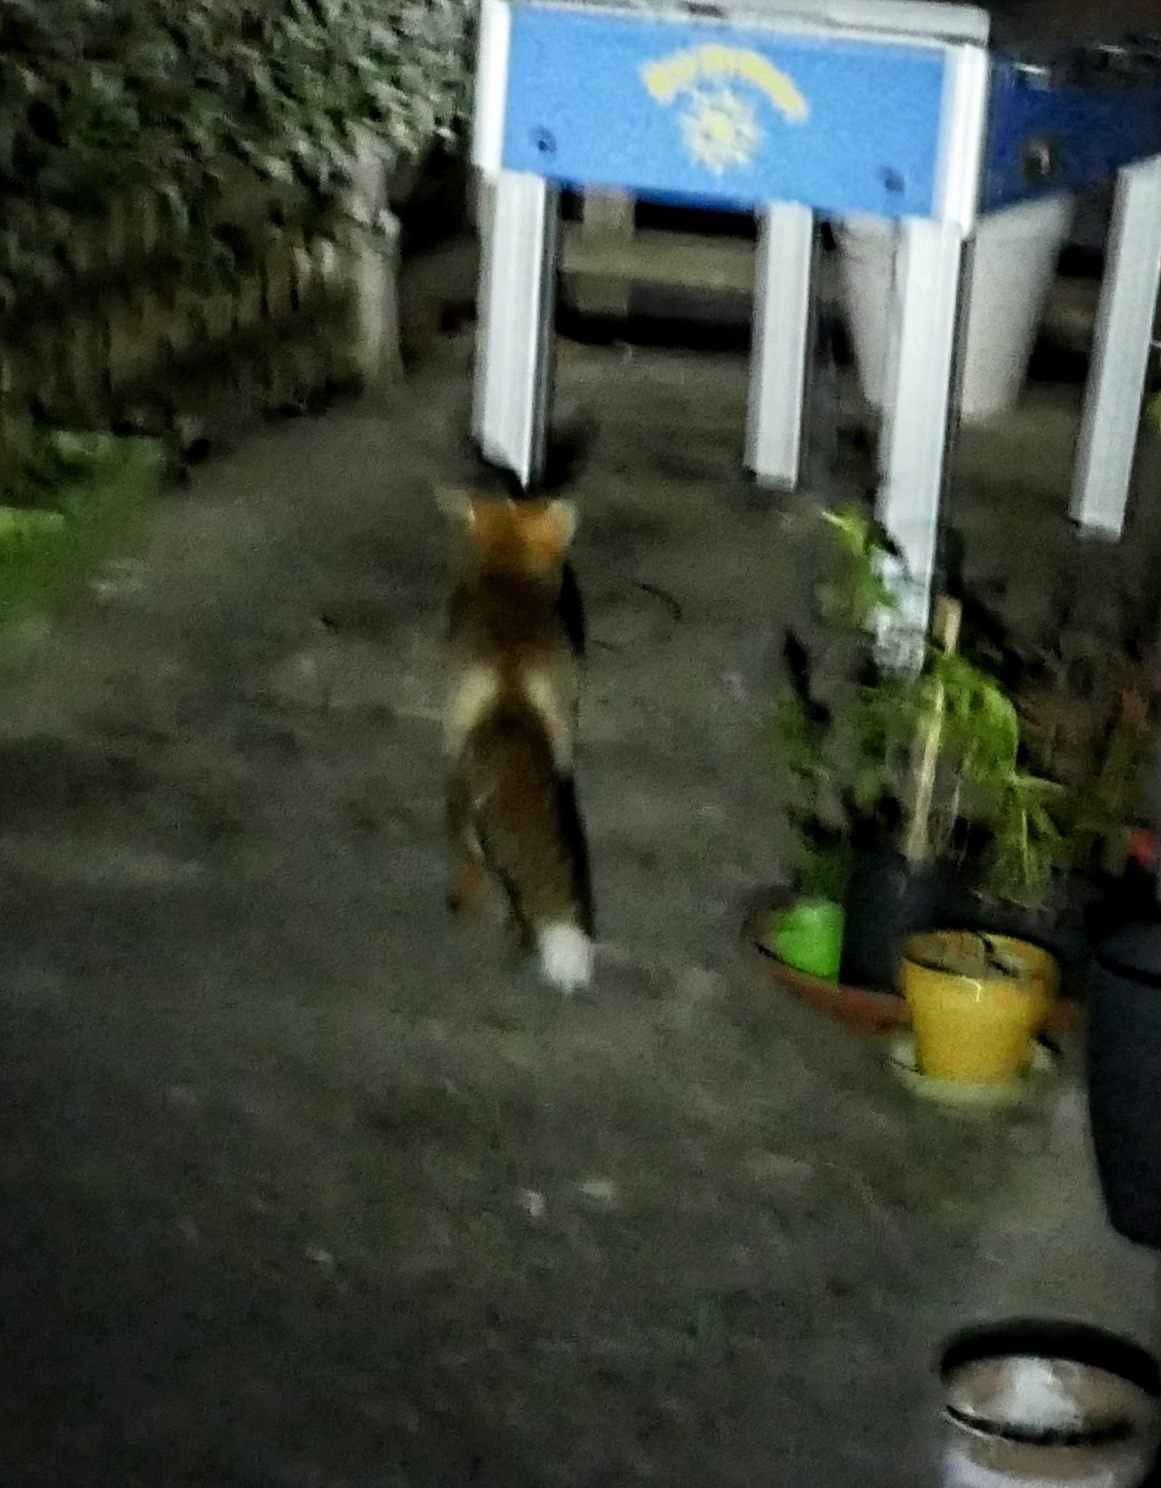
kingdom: Animalia
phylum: Chordata
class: Mammalia
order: Carnivora
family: Canidae
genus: Vulpes
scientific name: Vulpes vulpes
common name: Red fox
